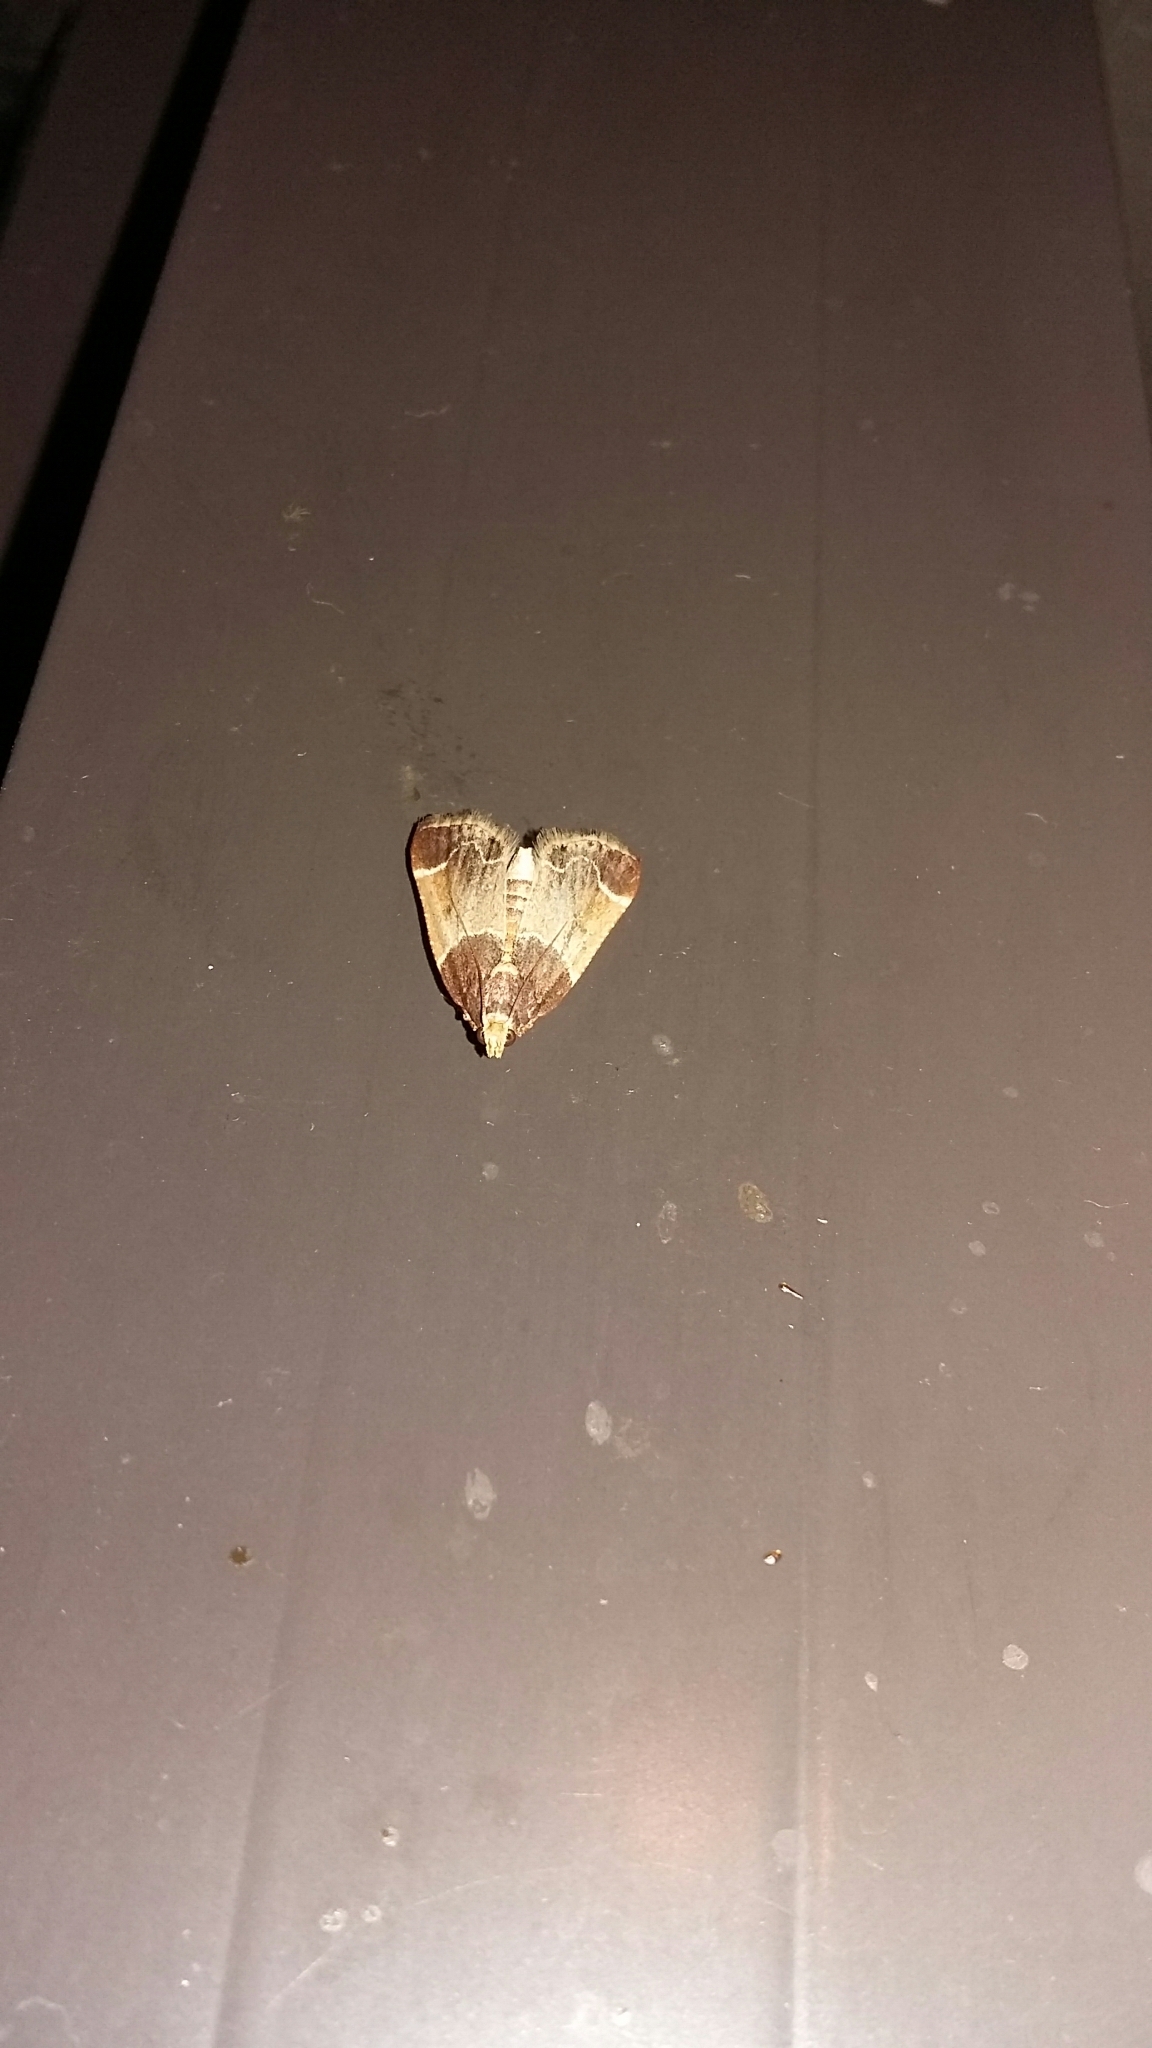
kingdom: Animalia
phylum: Arthropoda
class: Insecta
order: Lepidoptera
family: Pyralidae
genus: Pyralis
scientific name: Pyralis farinalis
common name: Meal moth
